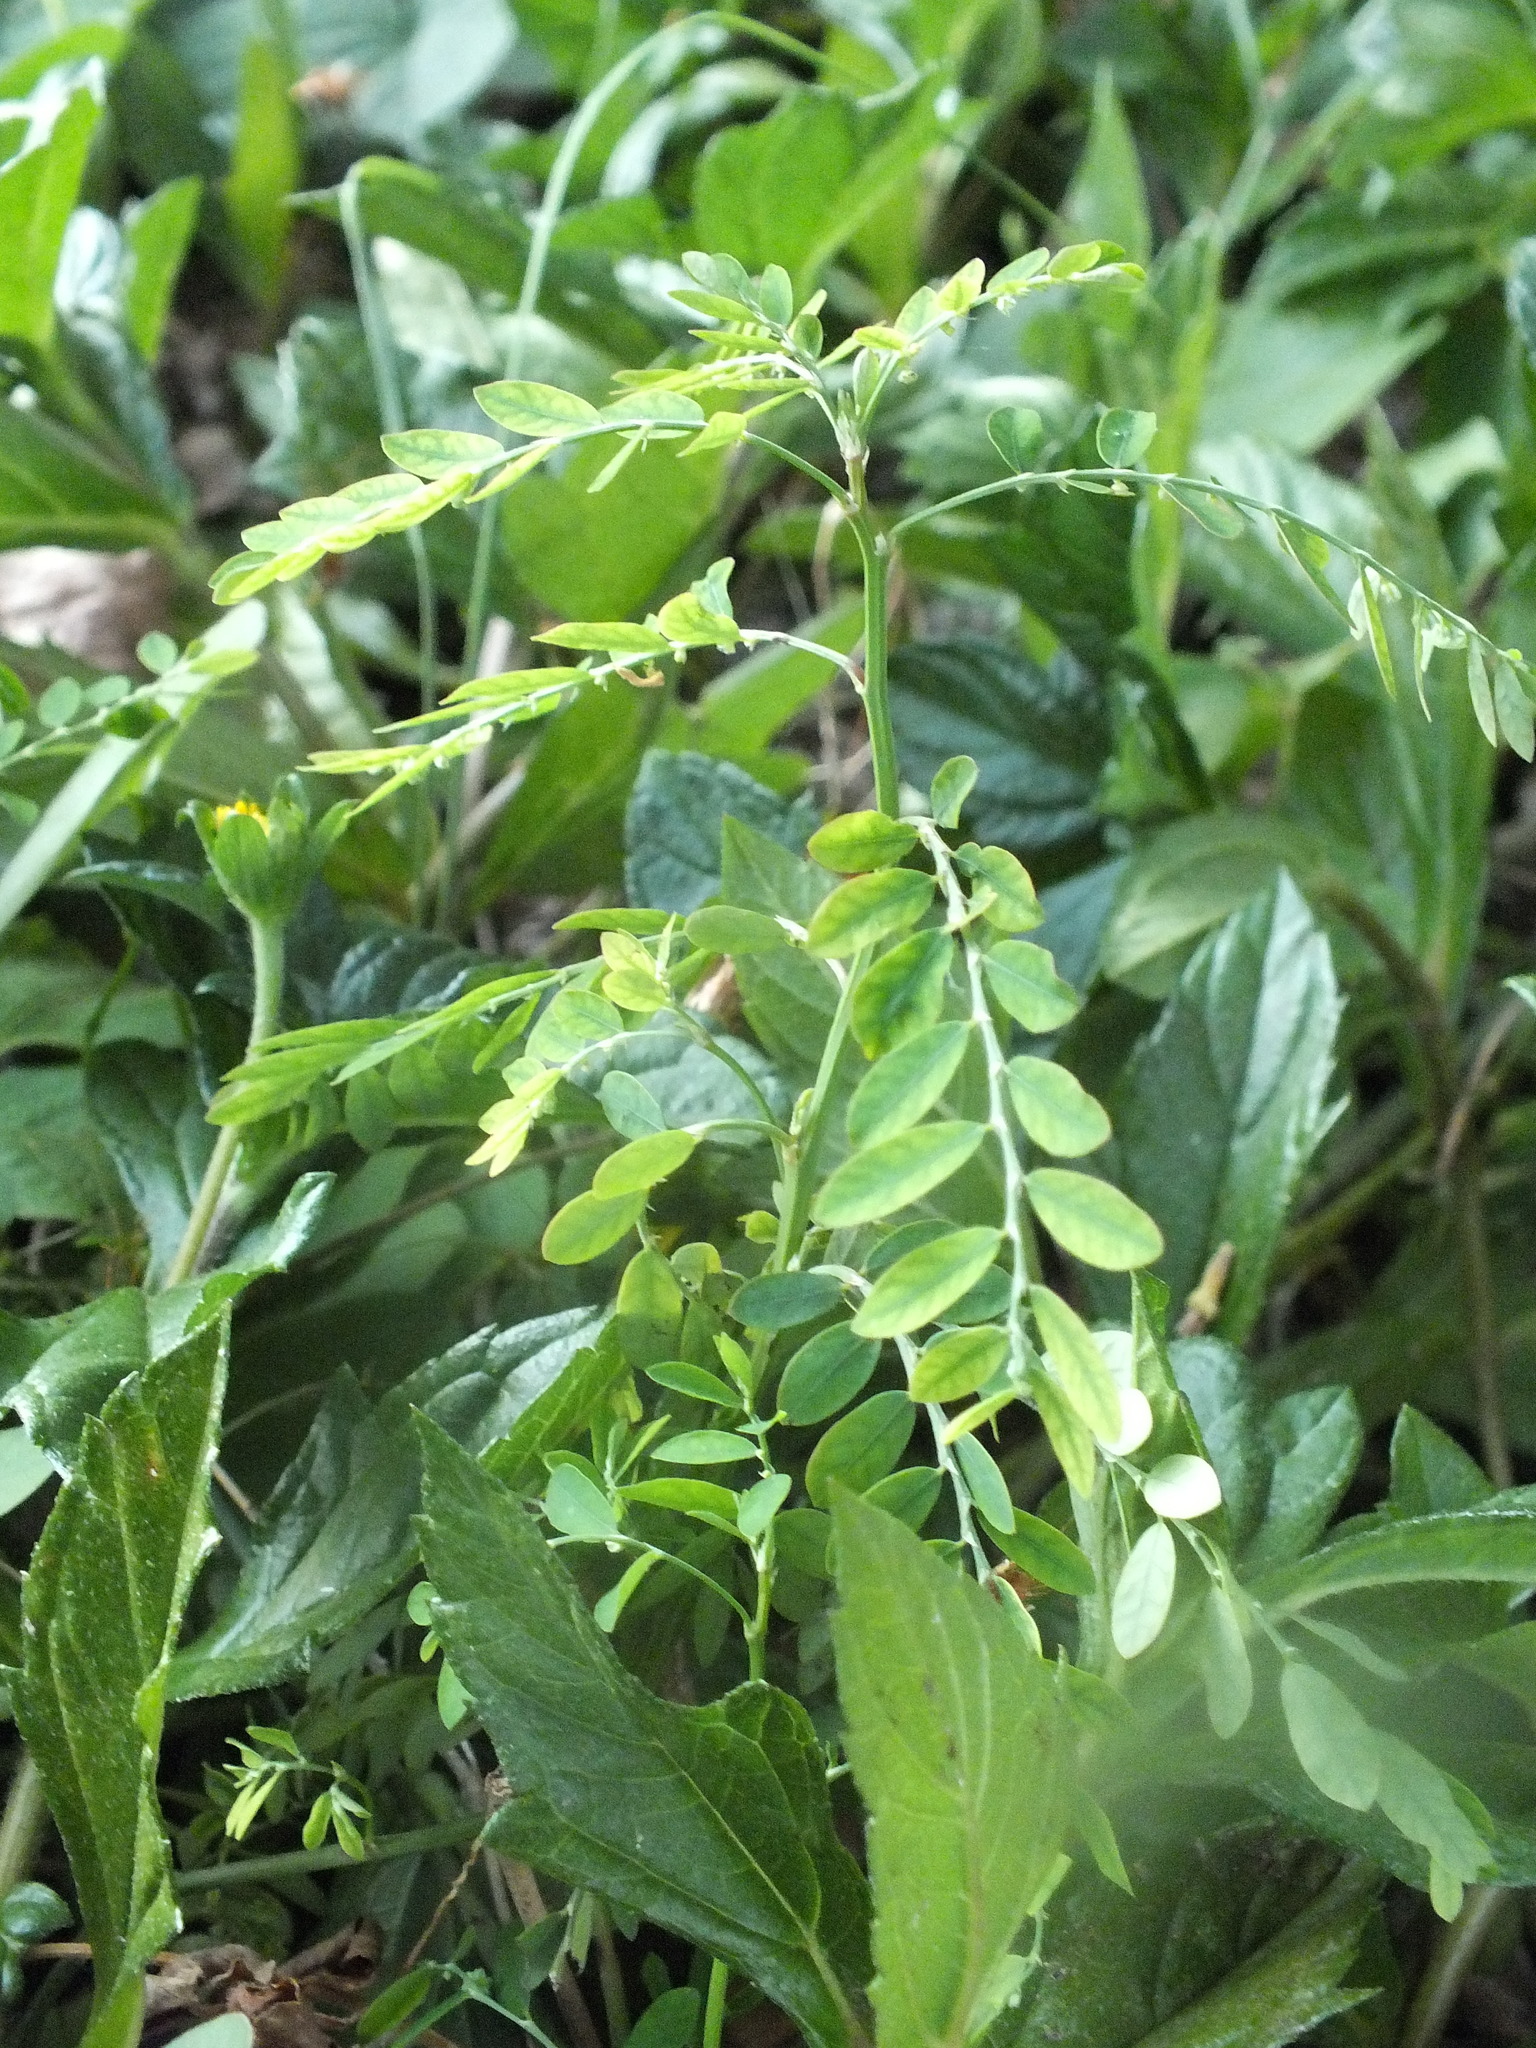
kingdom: Plantae
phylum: Tracheophyta
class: Magnoliopsida
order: Malpighiales
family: Phyllanthaceae
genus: Phyllanthus
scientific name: Phyllanthus debilis
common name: Niruri
